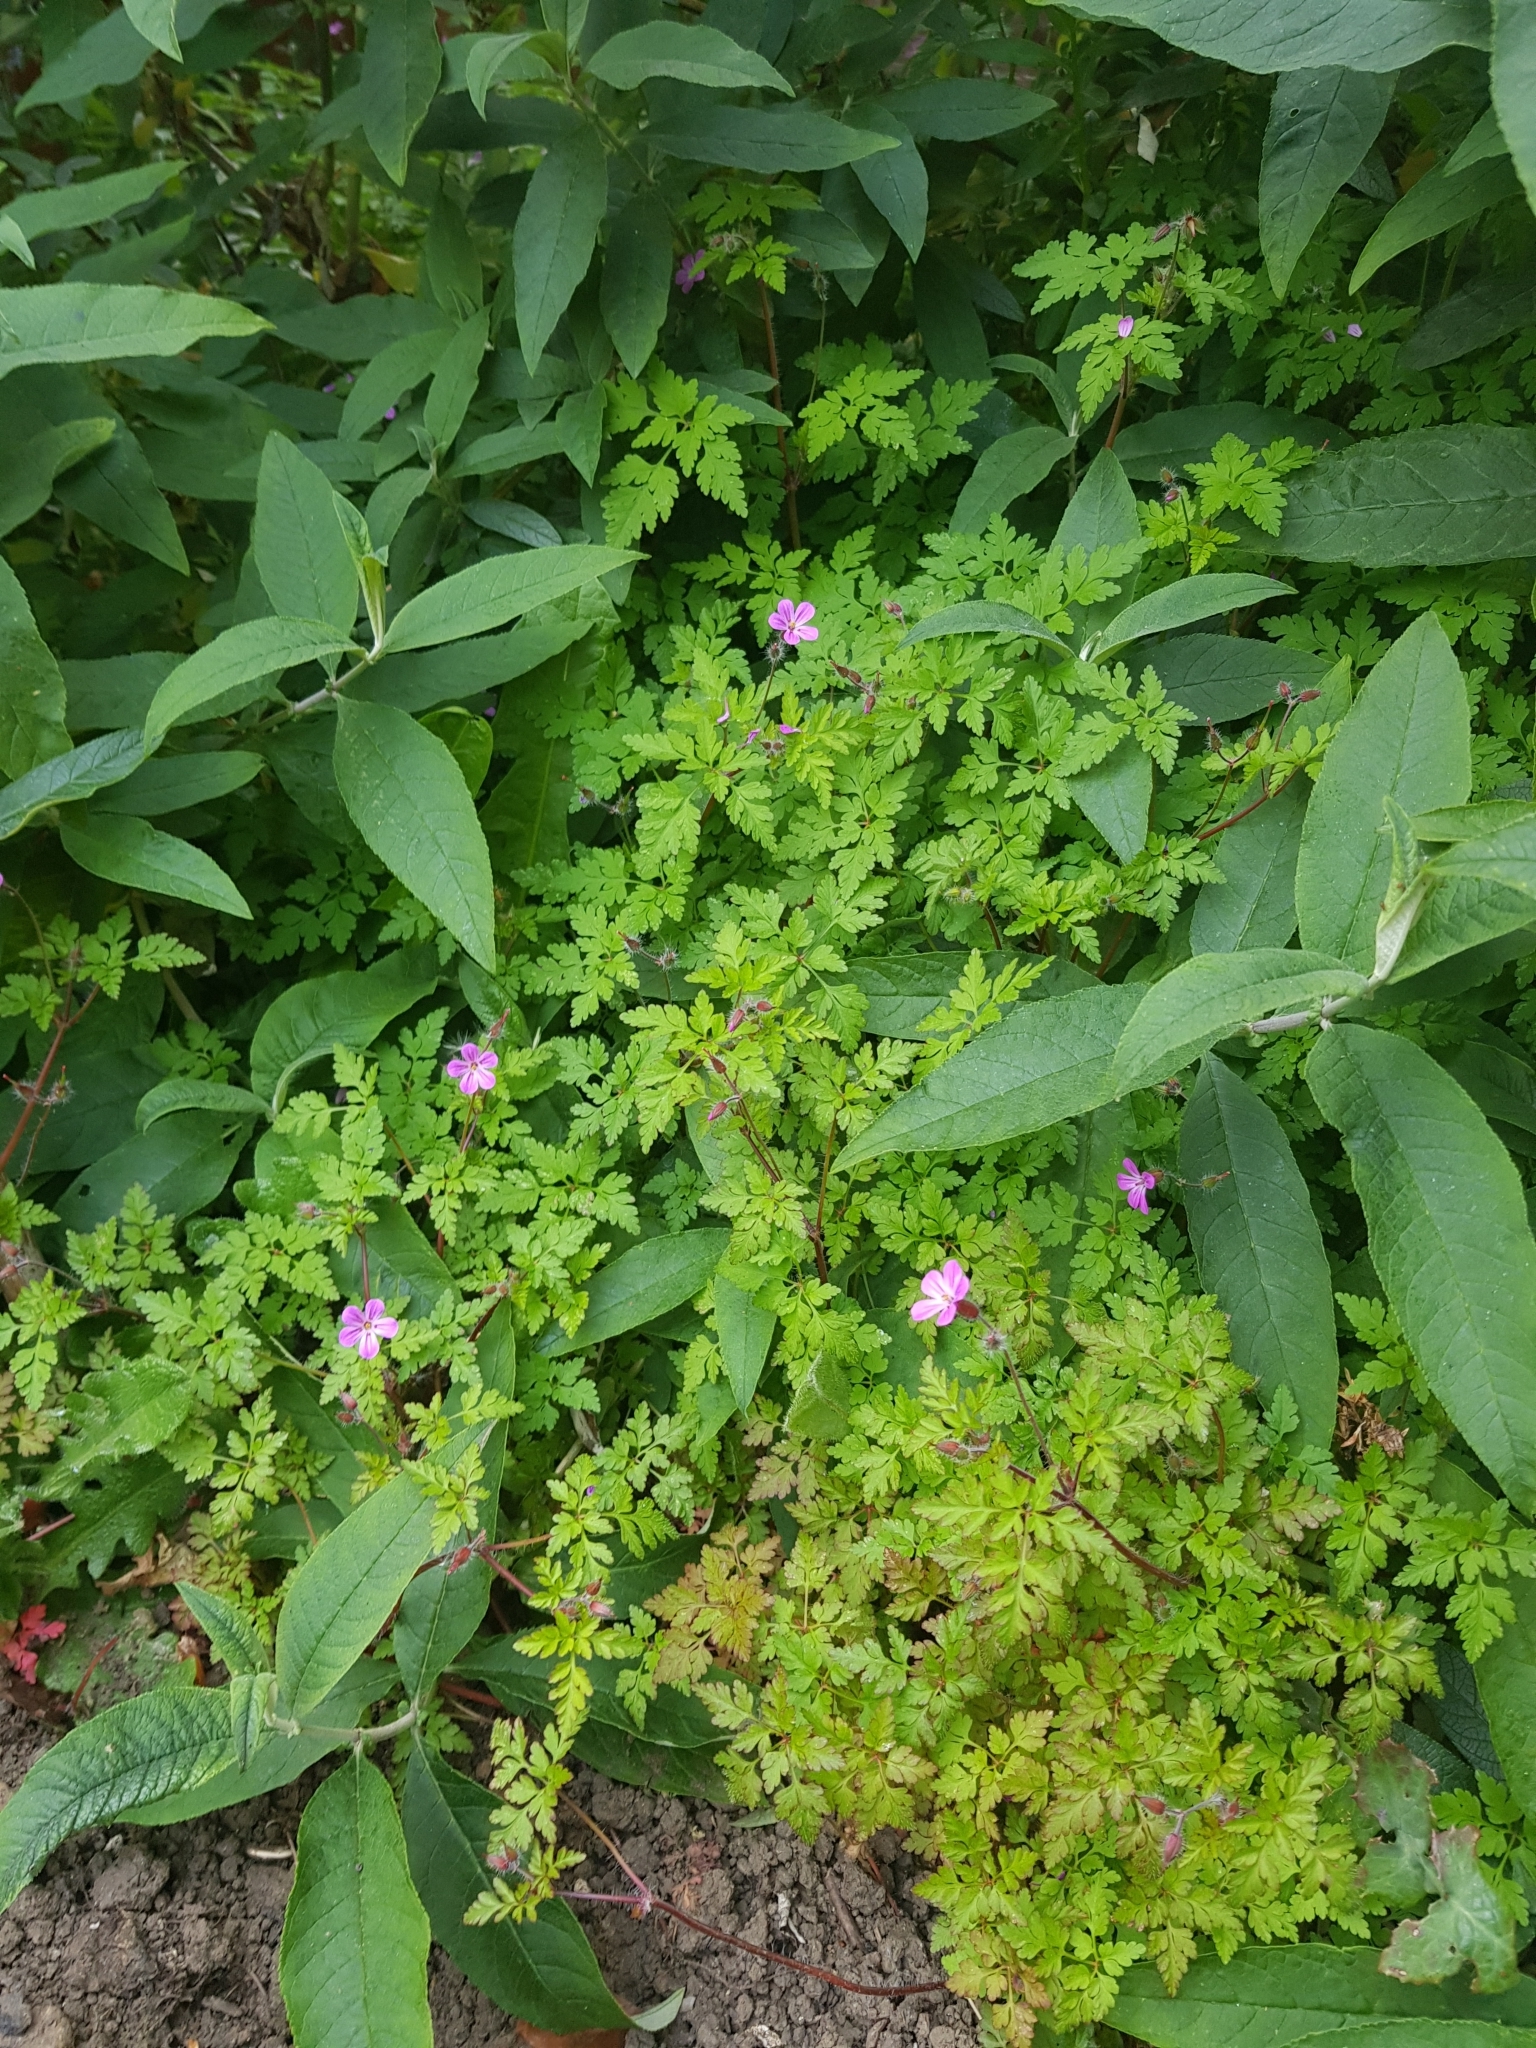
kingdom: Plantae
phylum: Tracheophyta
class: Magnoliopsida
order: Geraniales
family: Geraniaceae
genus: Geranium
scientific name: Geranium robertianum
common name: Herb-robert
